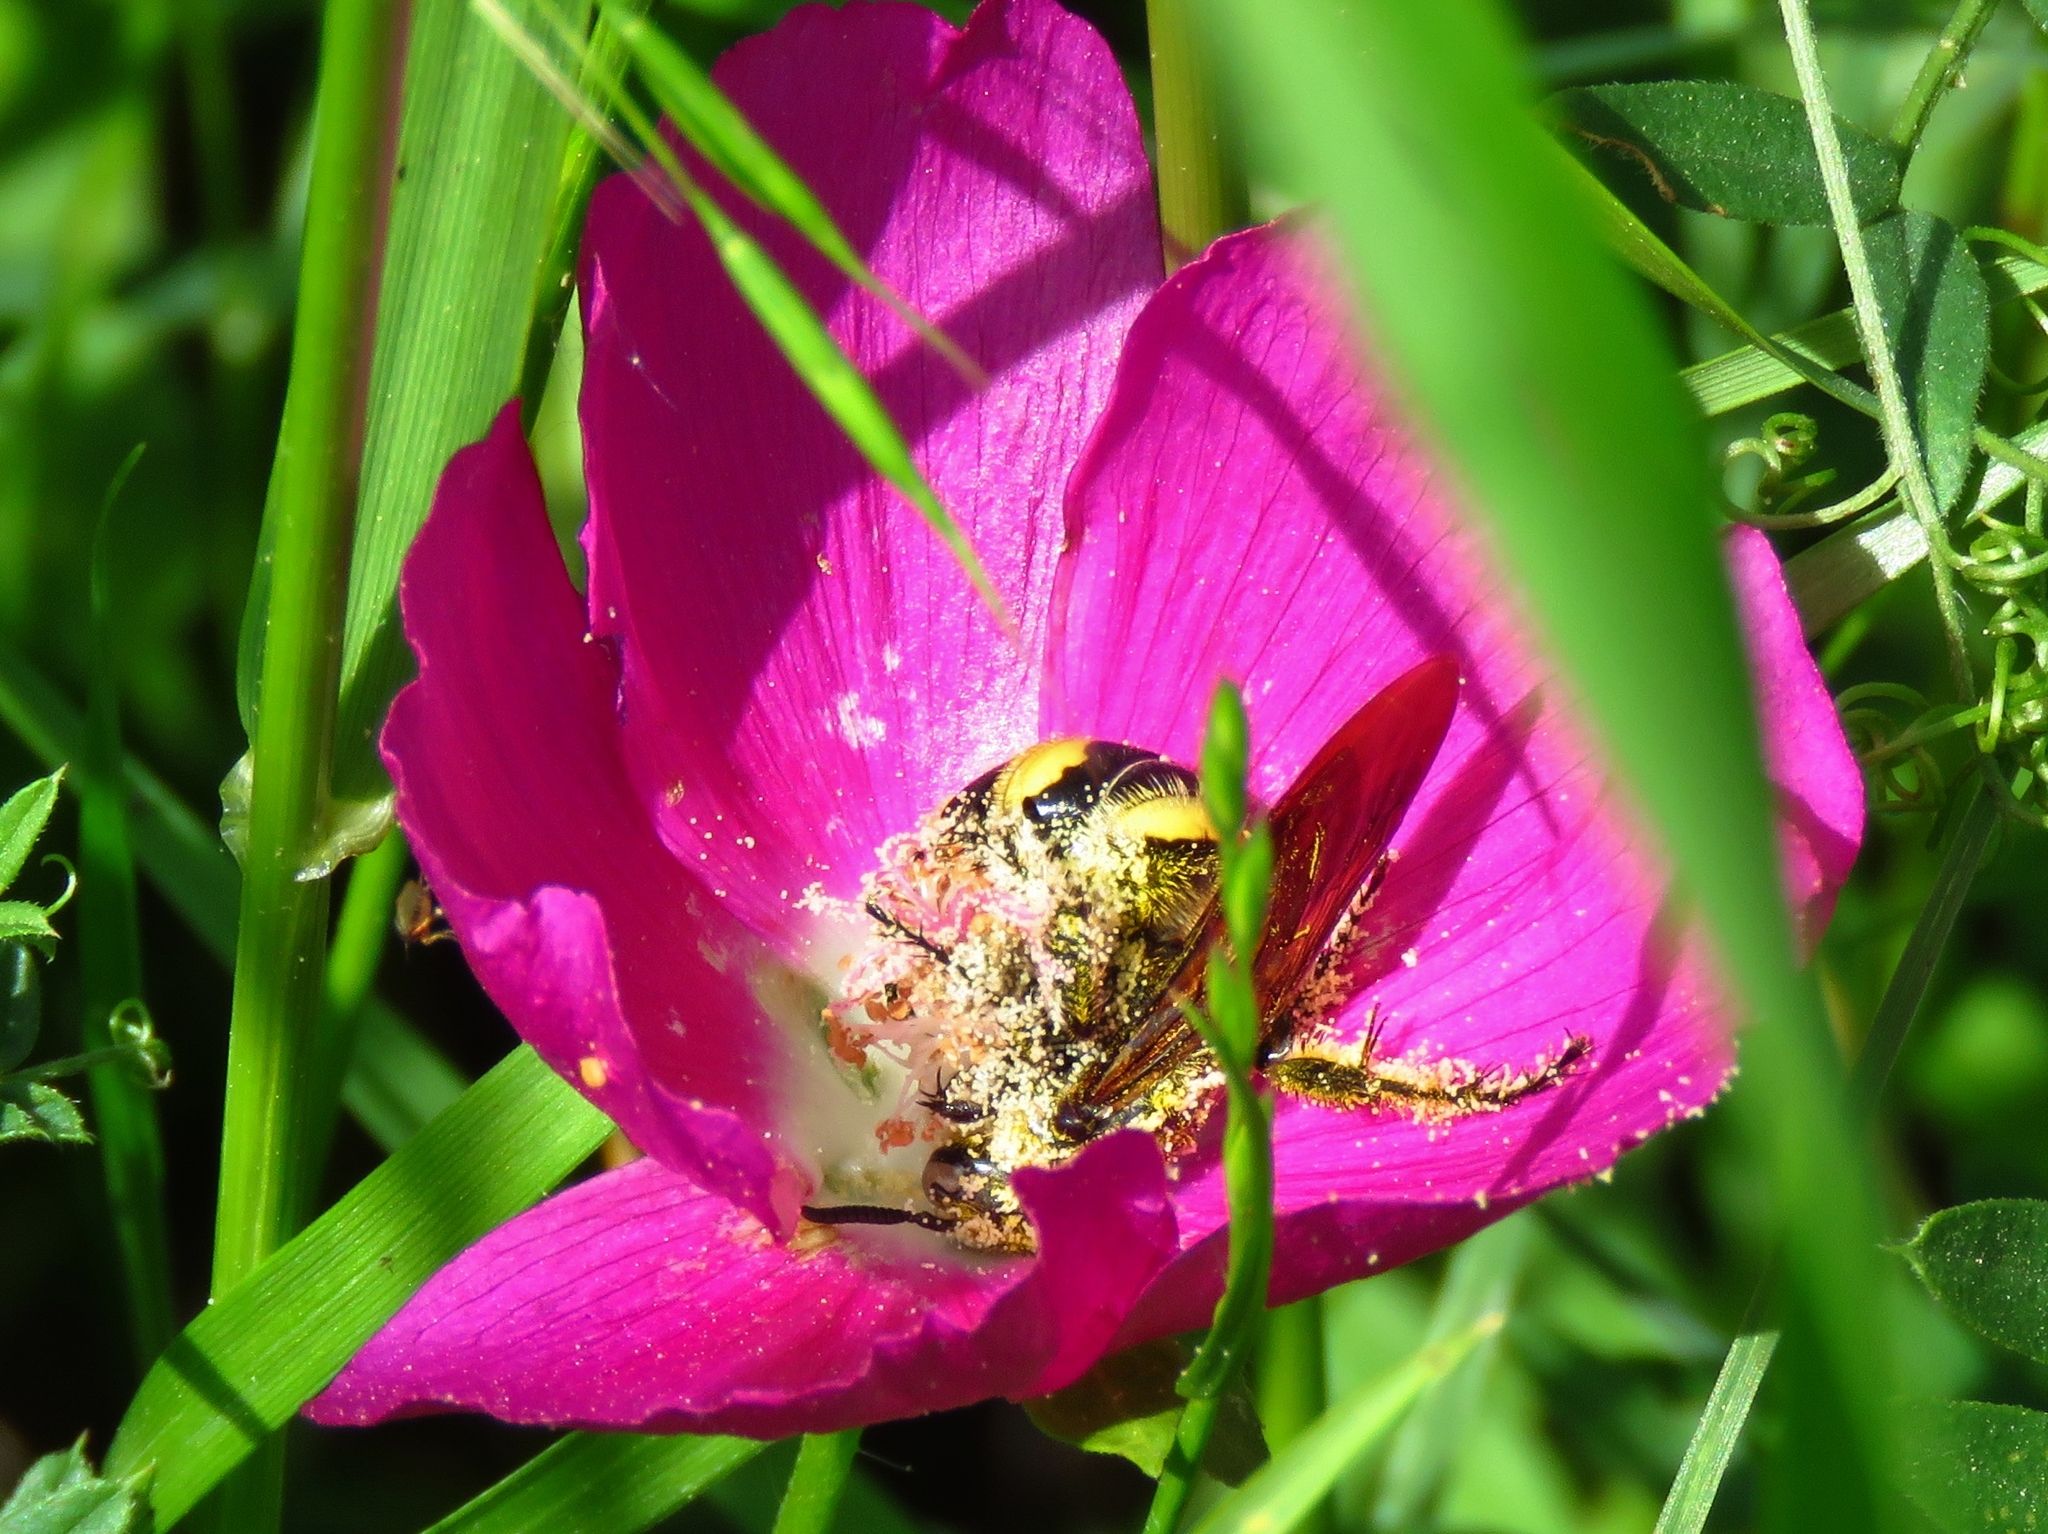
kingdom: Animalia
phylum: Arthropoda
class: Insecta
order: Hymenoptera
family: Scoliidae
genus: Dielis
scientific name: Dielis
